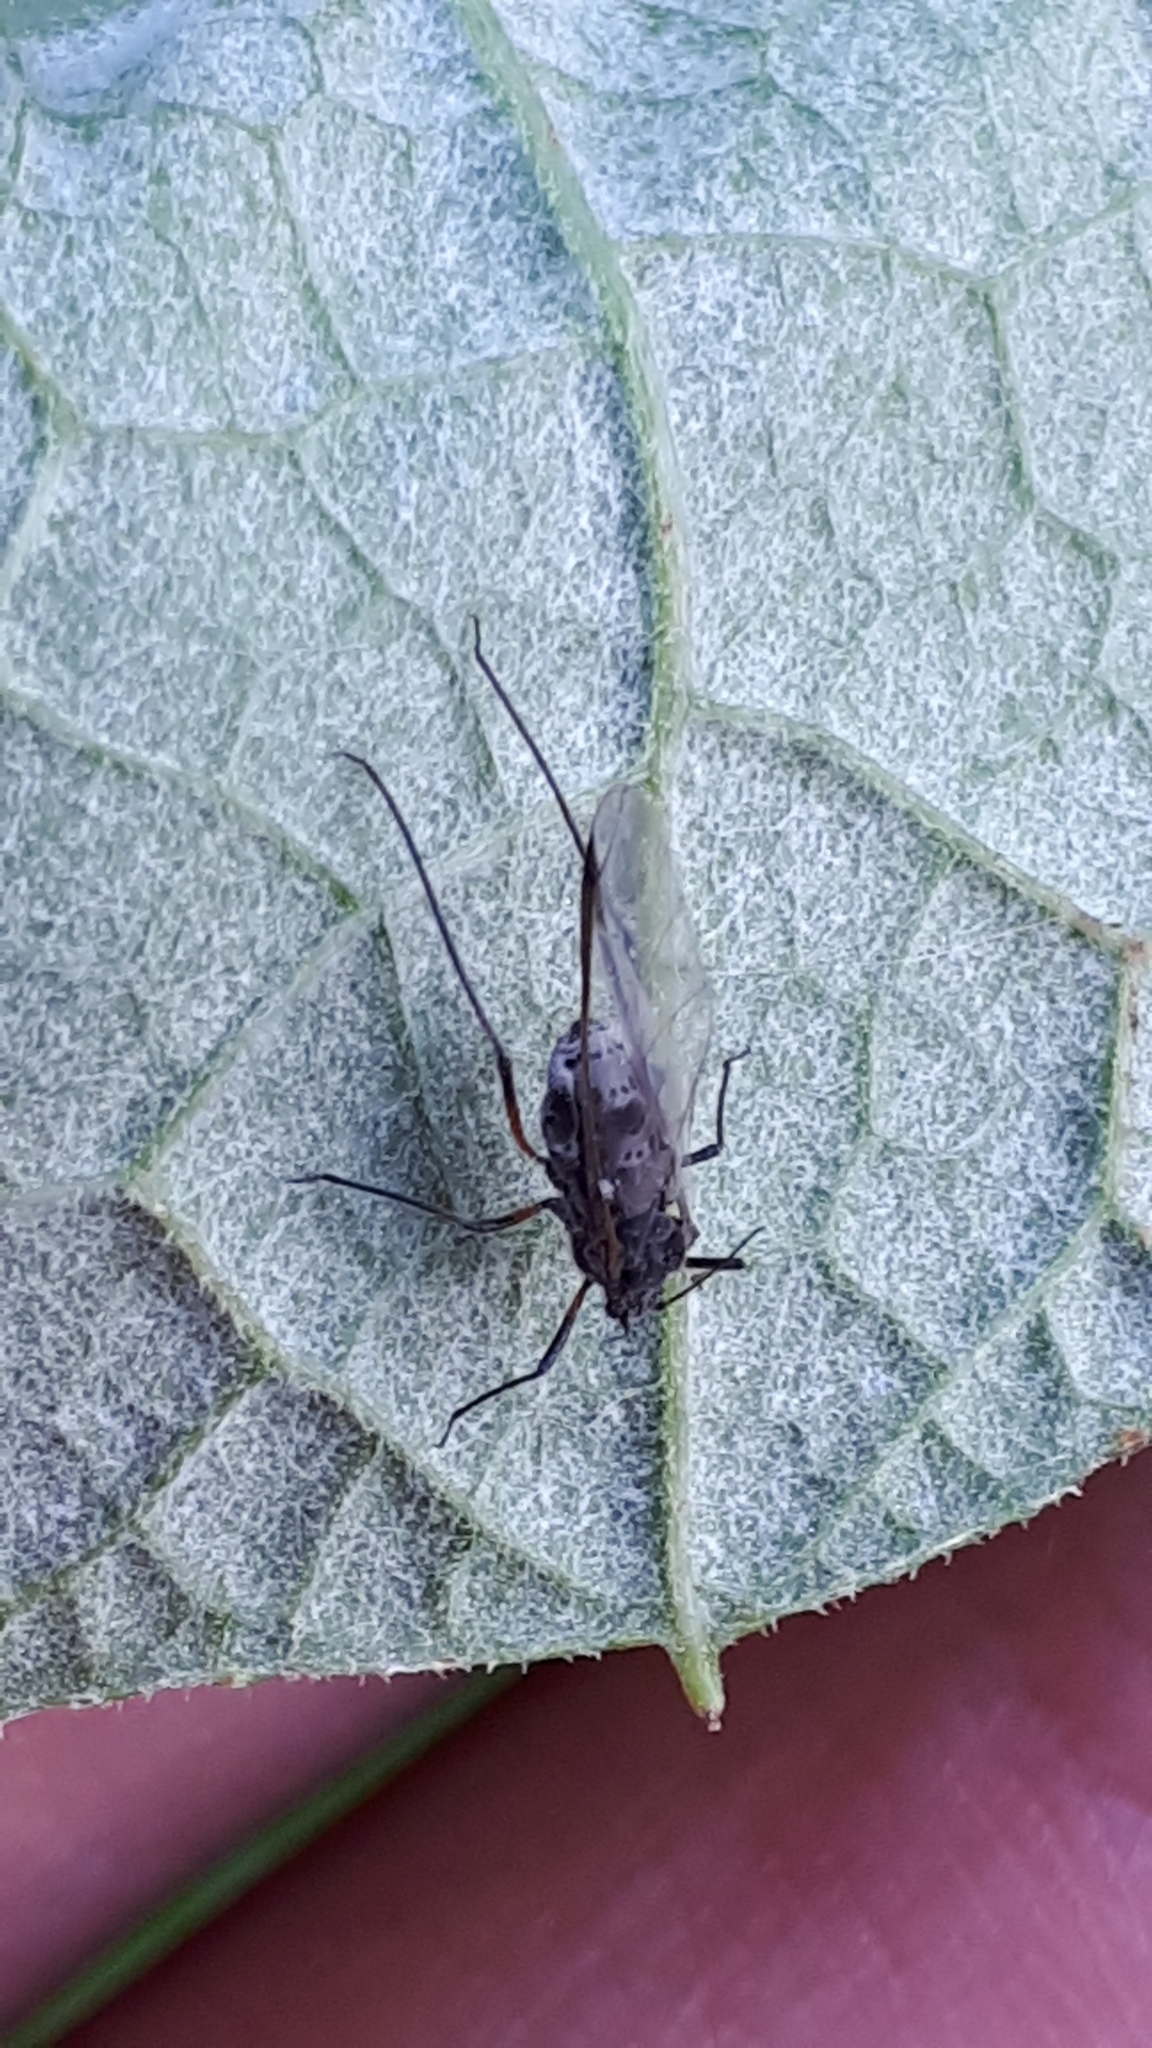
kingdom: Animalia
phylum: Arthropoda
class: Insecta
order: Hemiptera
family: Aphididae
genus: Tuberolachnus
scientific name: Tuberolachnus salignus
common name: Giant willow aphid
